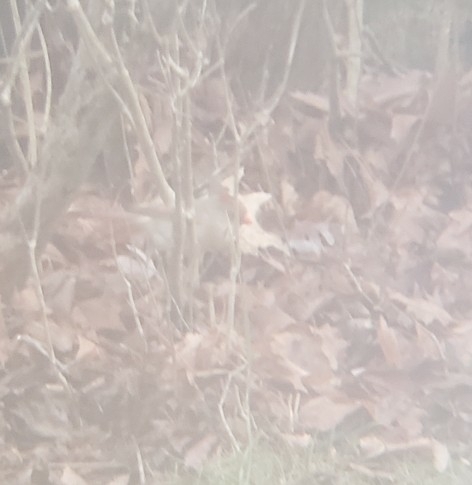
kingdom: Animalia
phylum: Chordata
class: Aves
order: Passeriformes
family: Cardinalidae
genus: Cardinalis
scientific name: Cardinalis cardinalis
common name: Northern cardinal
